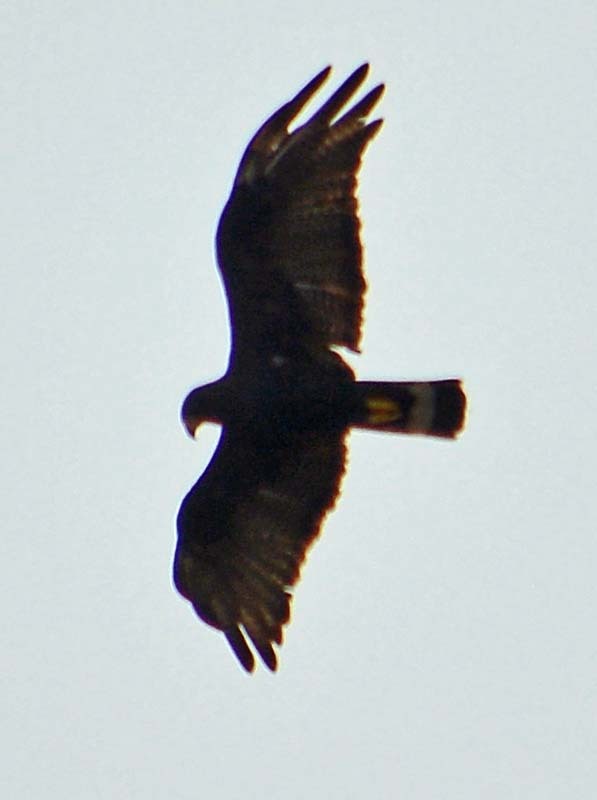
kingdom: Animalia
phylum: Chordata
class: Aves
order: Accipitriformes
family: Accipitridae
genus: Buteo
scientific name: Buteo albonotatus
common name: Zone-tailed hawk
